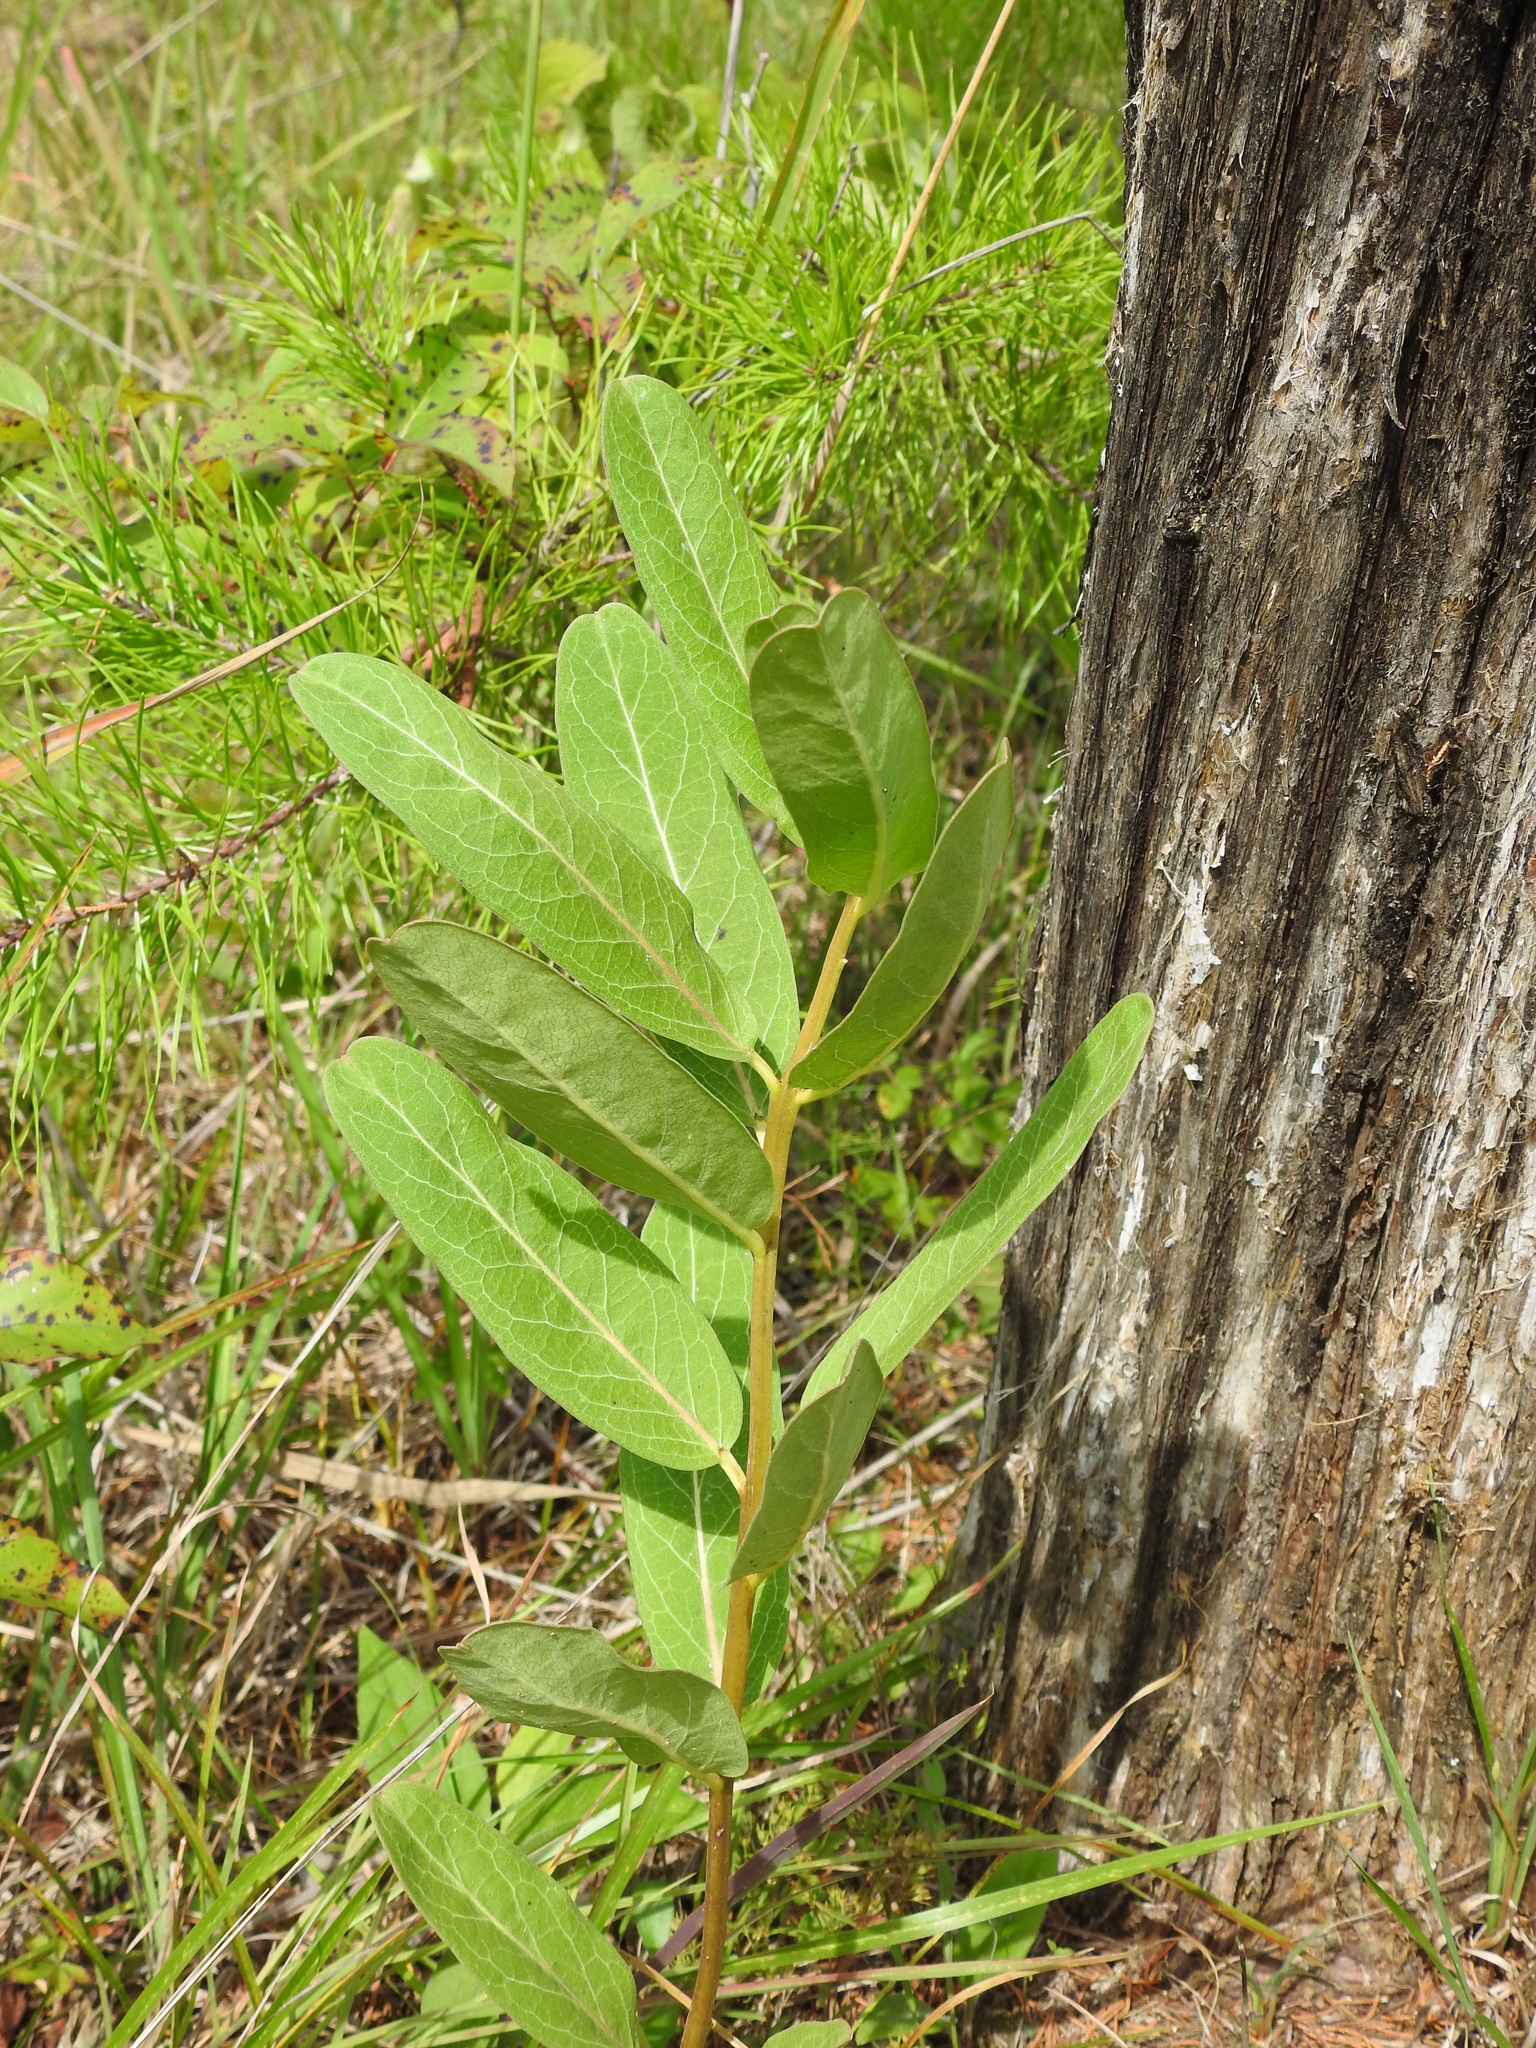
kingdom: Plantae
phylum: Tracheophyta
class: Magnoliopsida
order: Gentianales
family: Apocynaceae
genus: Asclepias
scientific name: Asclepias viridis
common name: Antelope-horns
